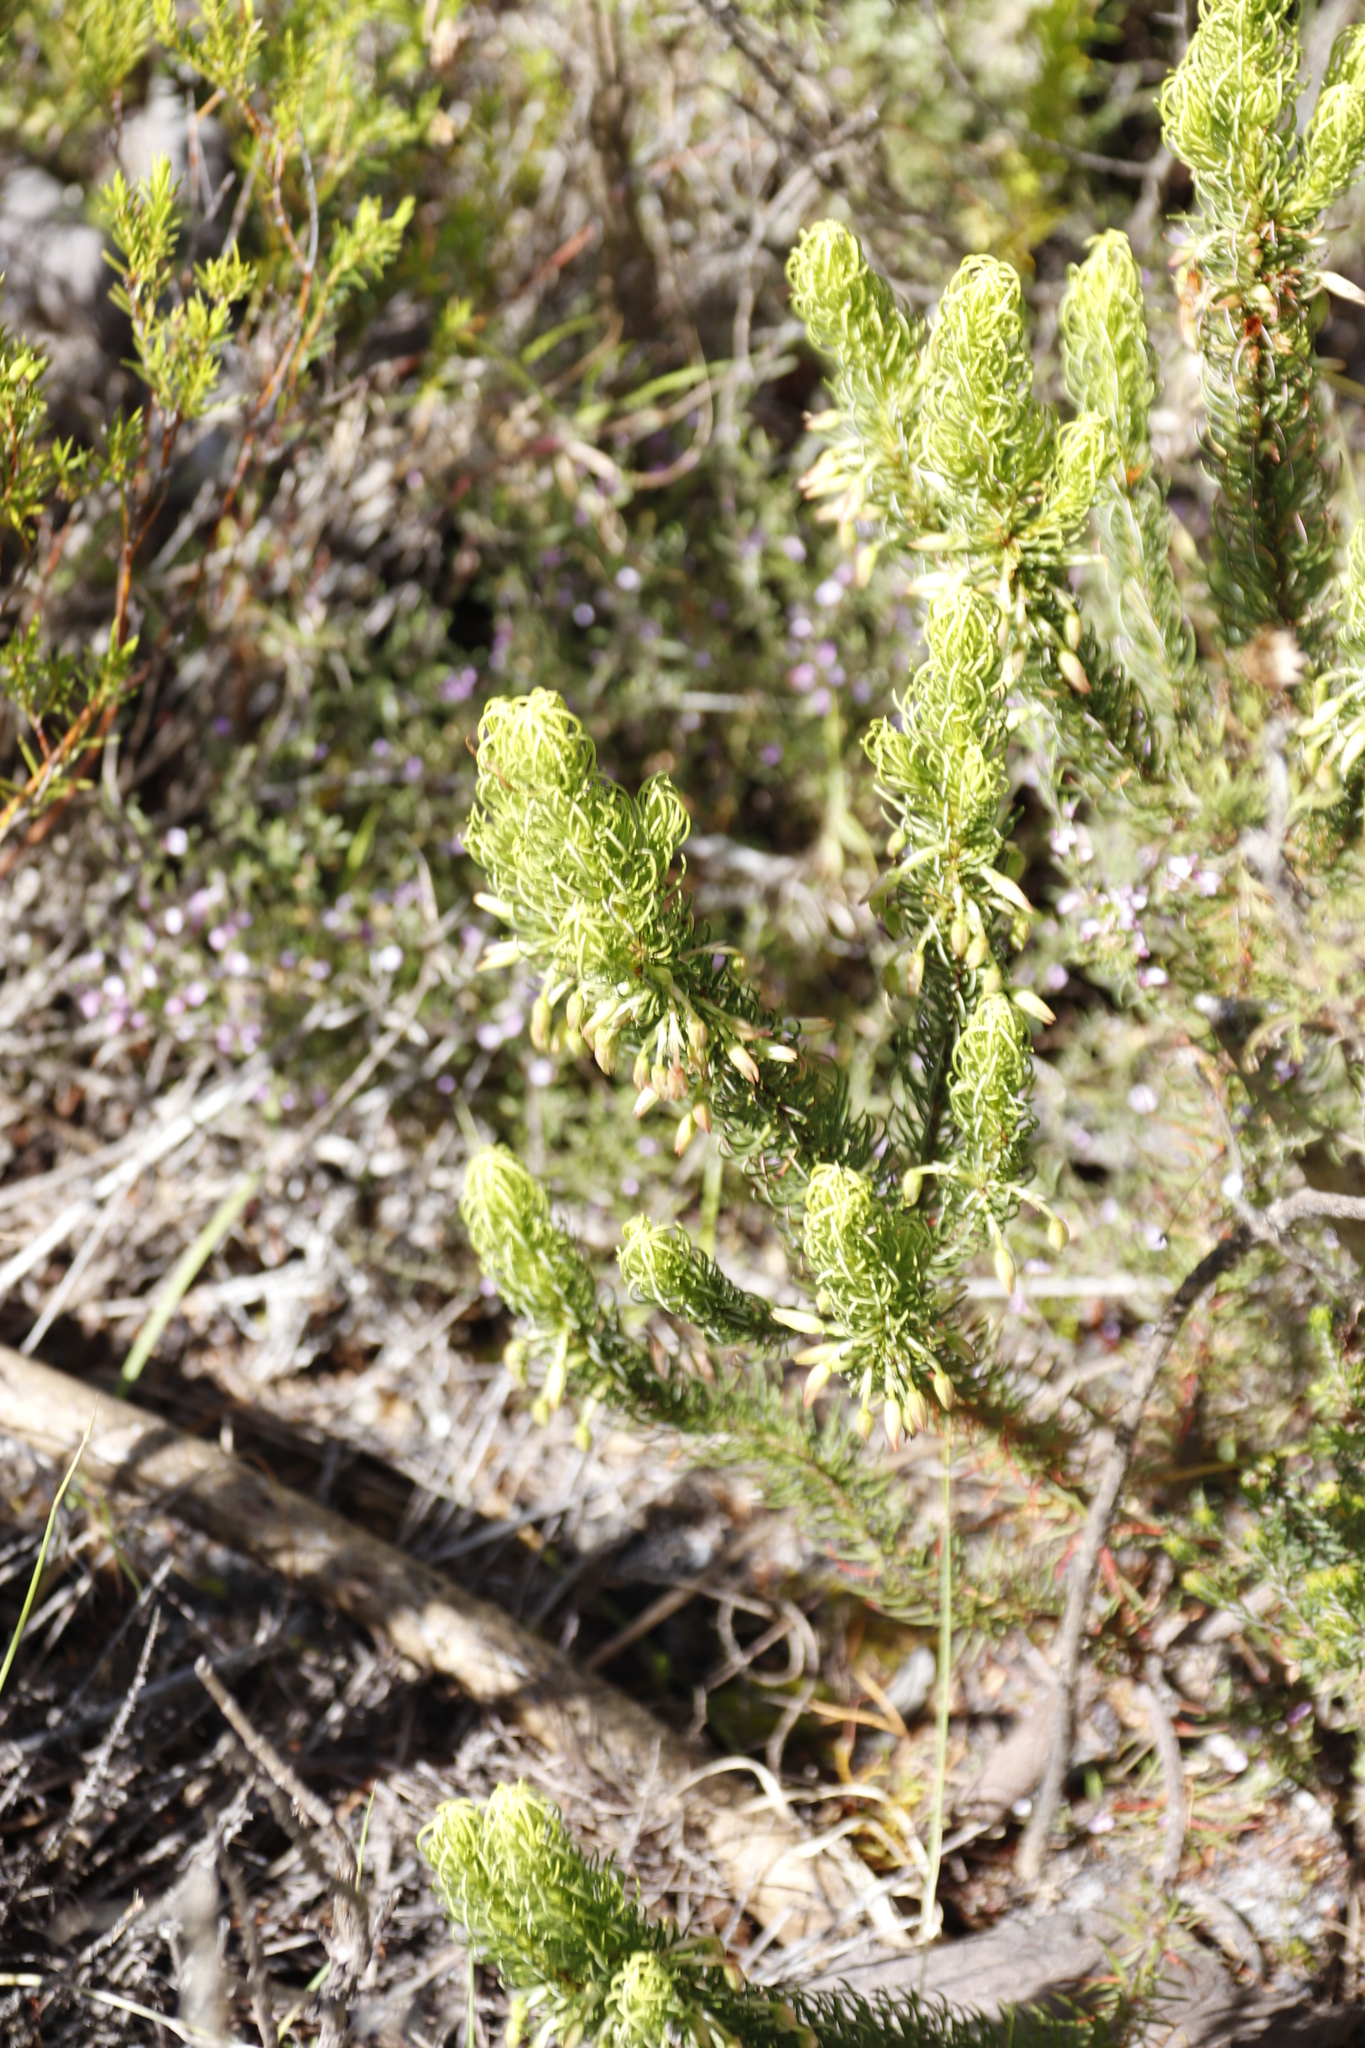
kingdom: Plantae
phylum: Tracheophyta
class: Magnoliopsida
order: Ericales
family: Ericaceae
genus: Erica
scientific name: Erica plukenetii
